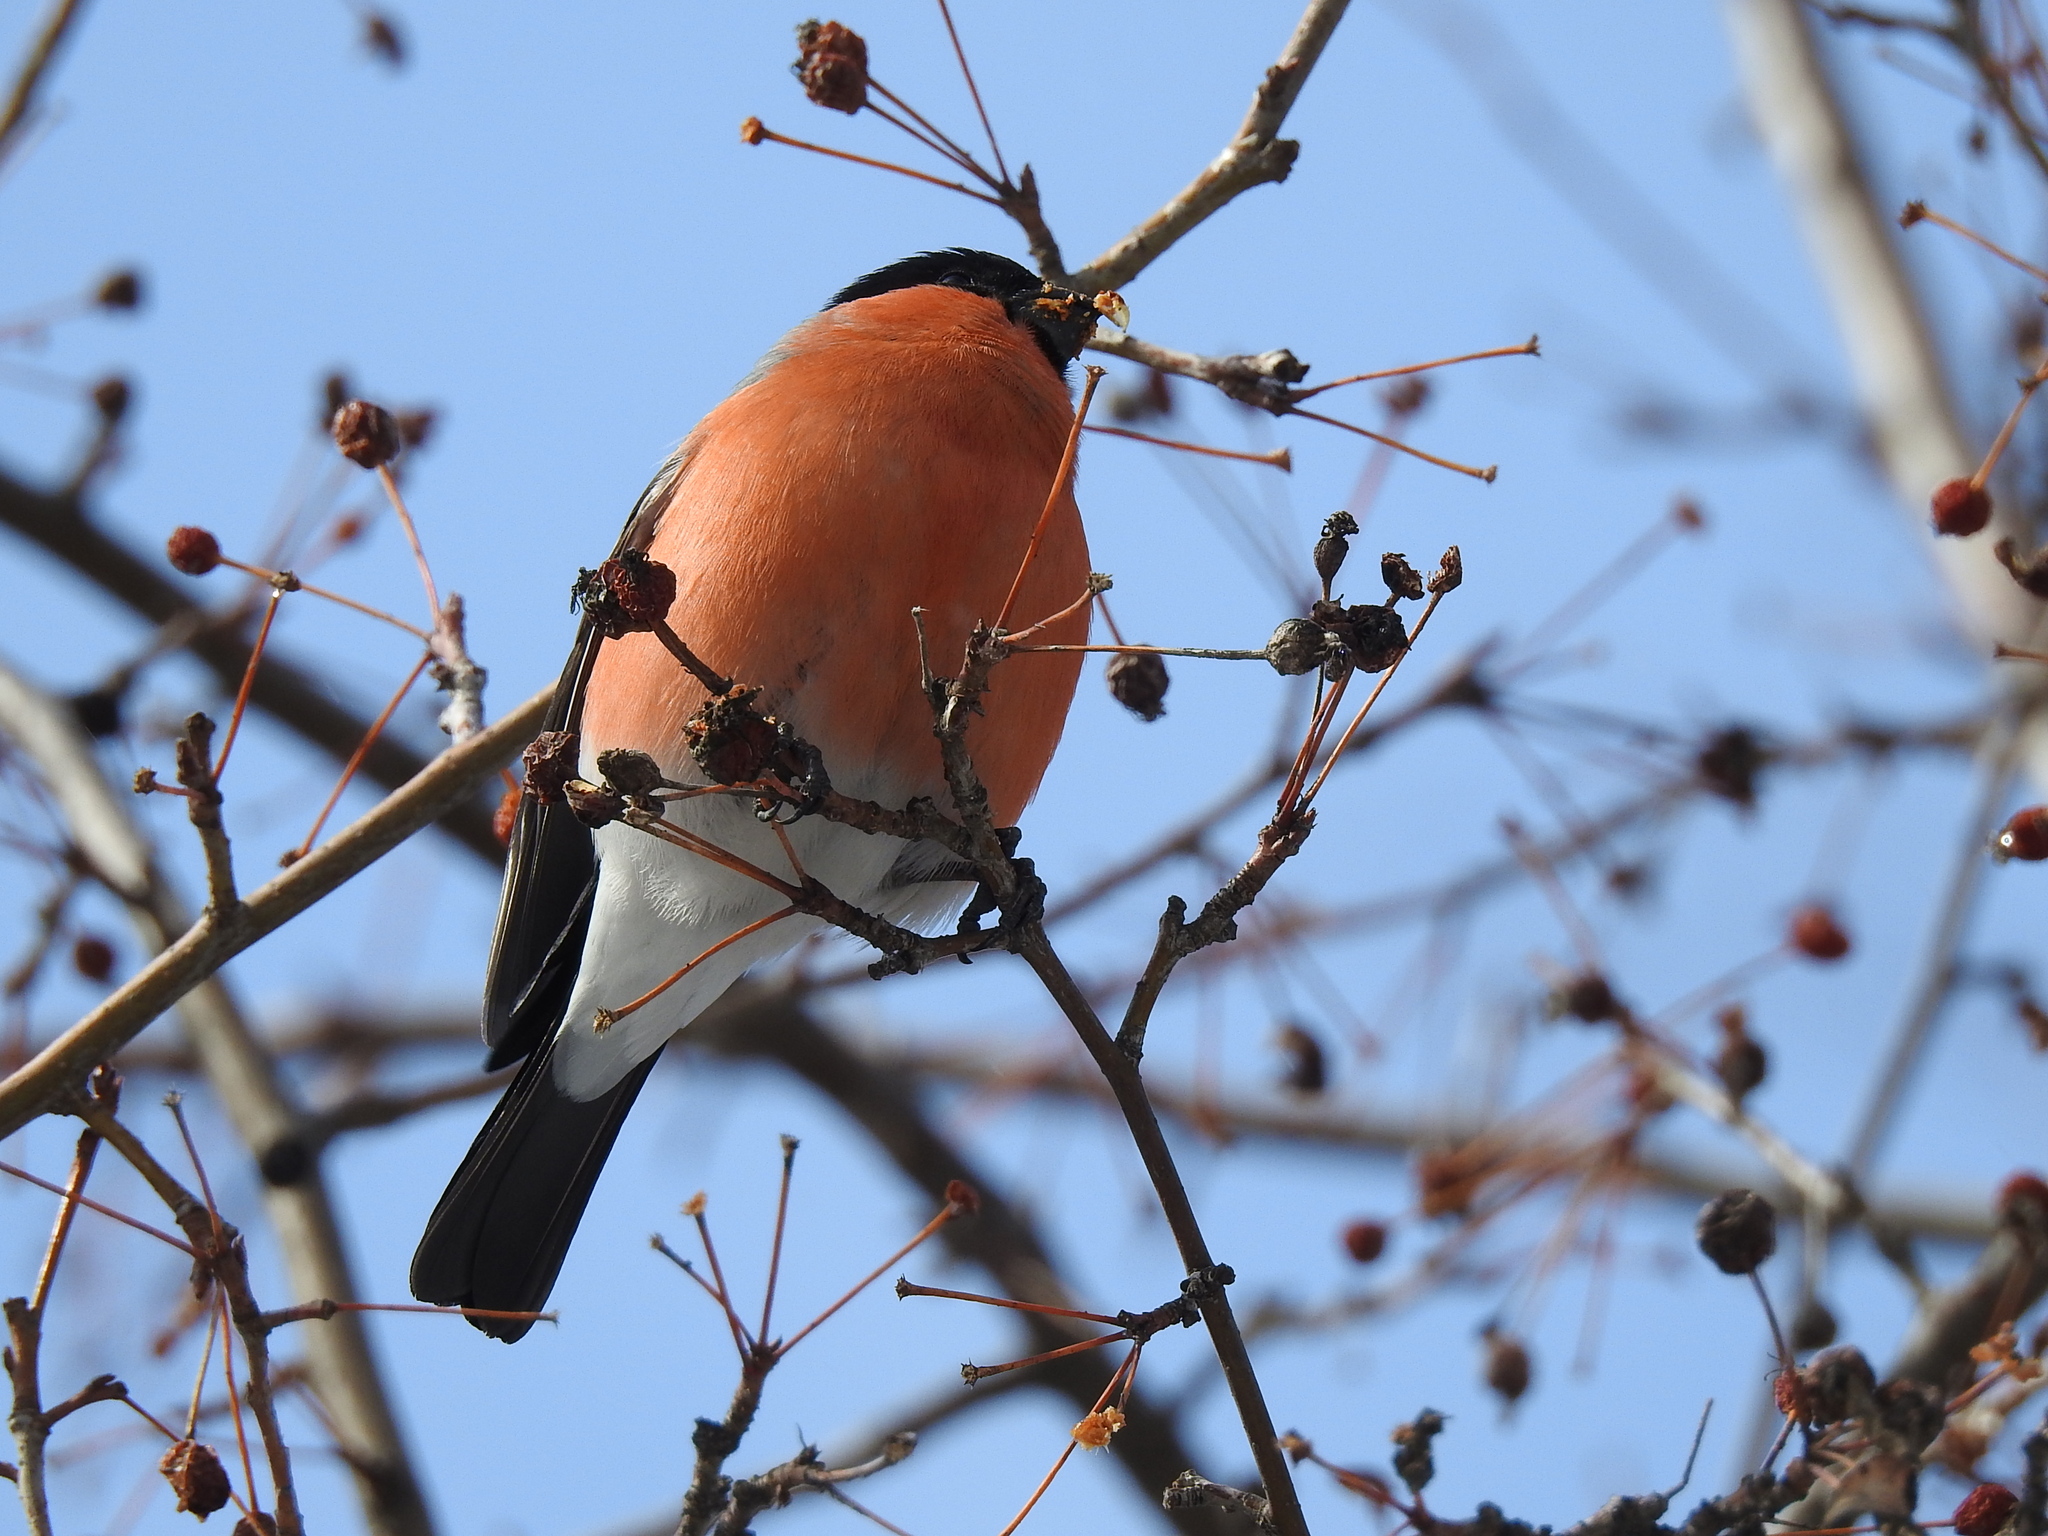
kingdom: Animalia
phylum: Chordata
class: Aves
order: Passeriformes
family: Fringillidae
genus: Pyrrhula
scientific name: Pyrrhula pyrrhula
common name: Eurasian bullfinch
